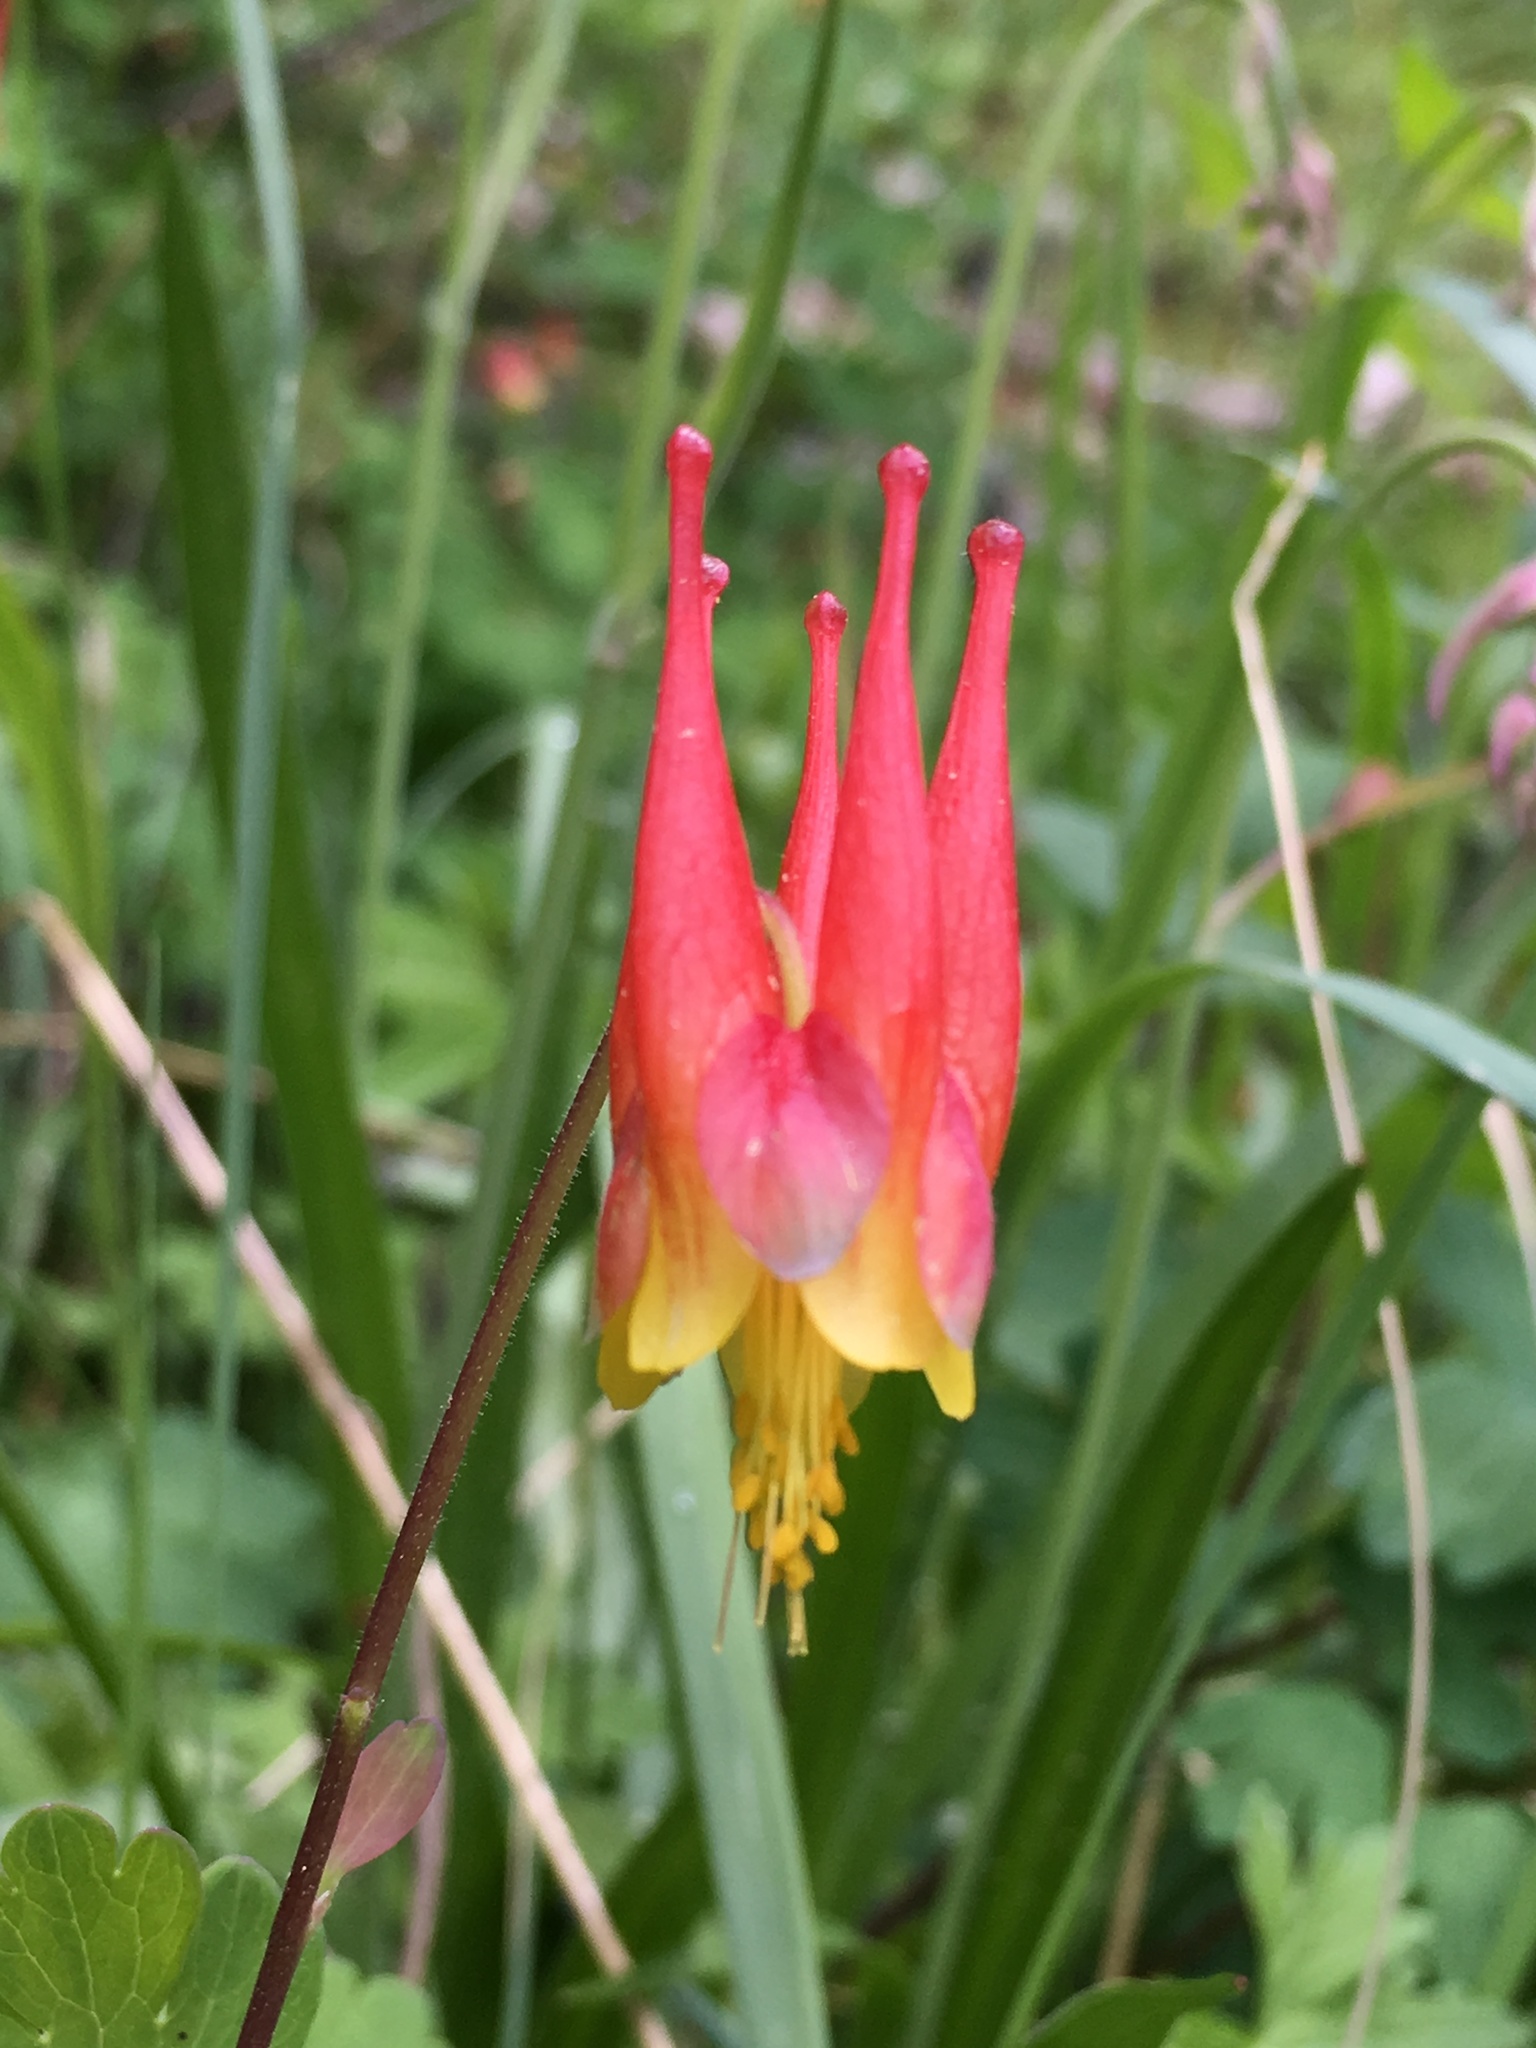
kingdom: Plantae
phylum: Tracheophyta
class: Magnoliopsida
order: Ranunculales
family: Ranunculaceae
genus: Aquilegia
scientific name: Aquilegia elegantula
